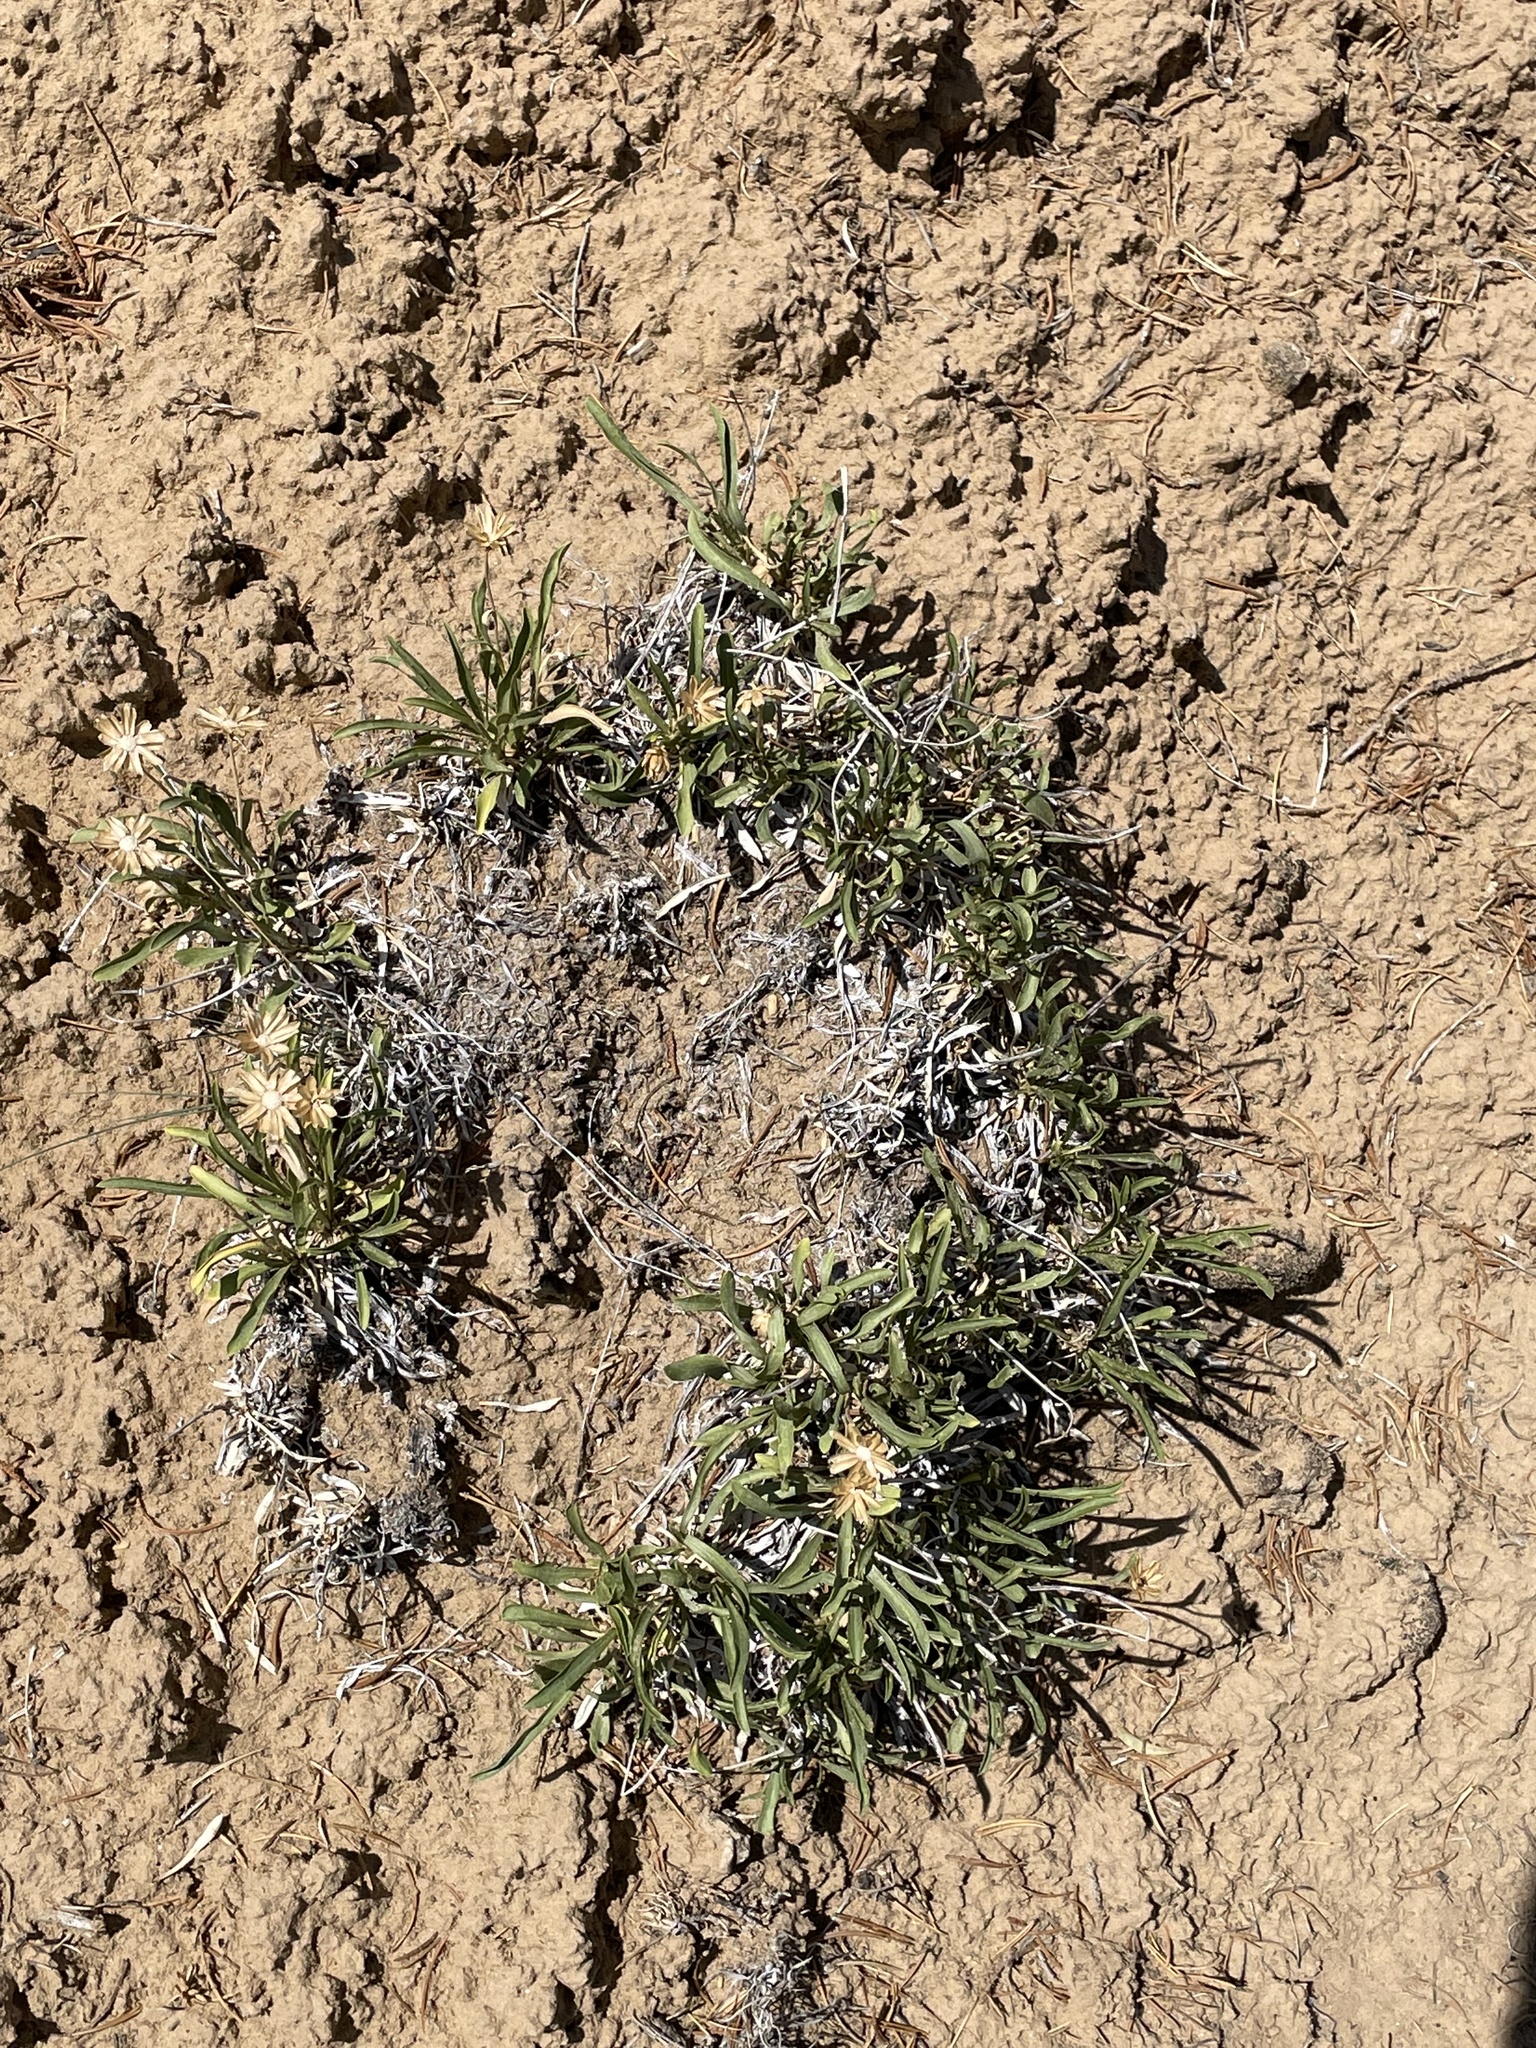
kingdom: Plantae
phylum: Tracheophyta
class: Magnoliopsida
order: Asterales
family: Asteraceae
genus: Stenotus
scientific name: Stenotus armerioides
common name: Thrifty goldenweed
